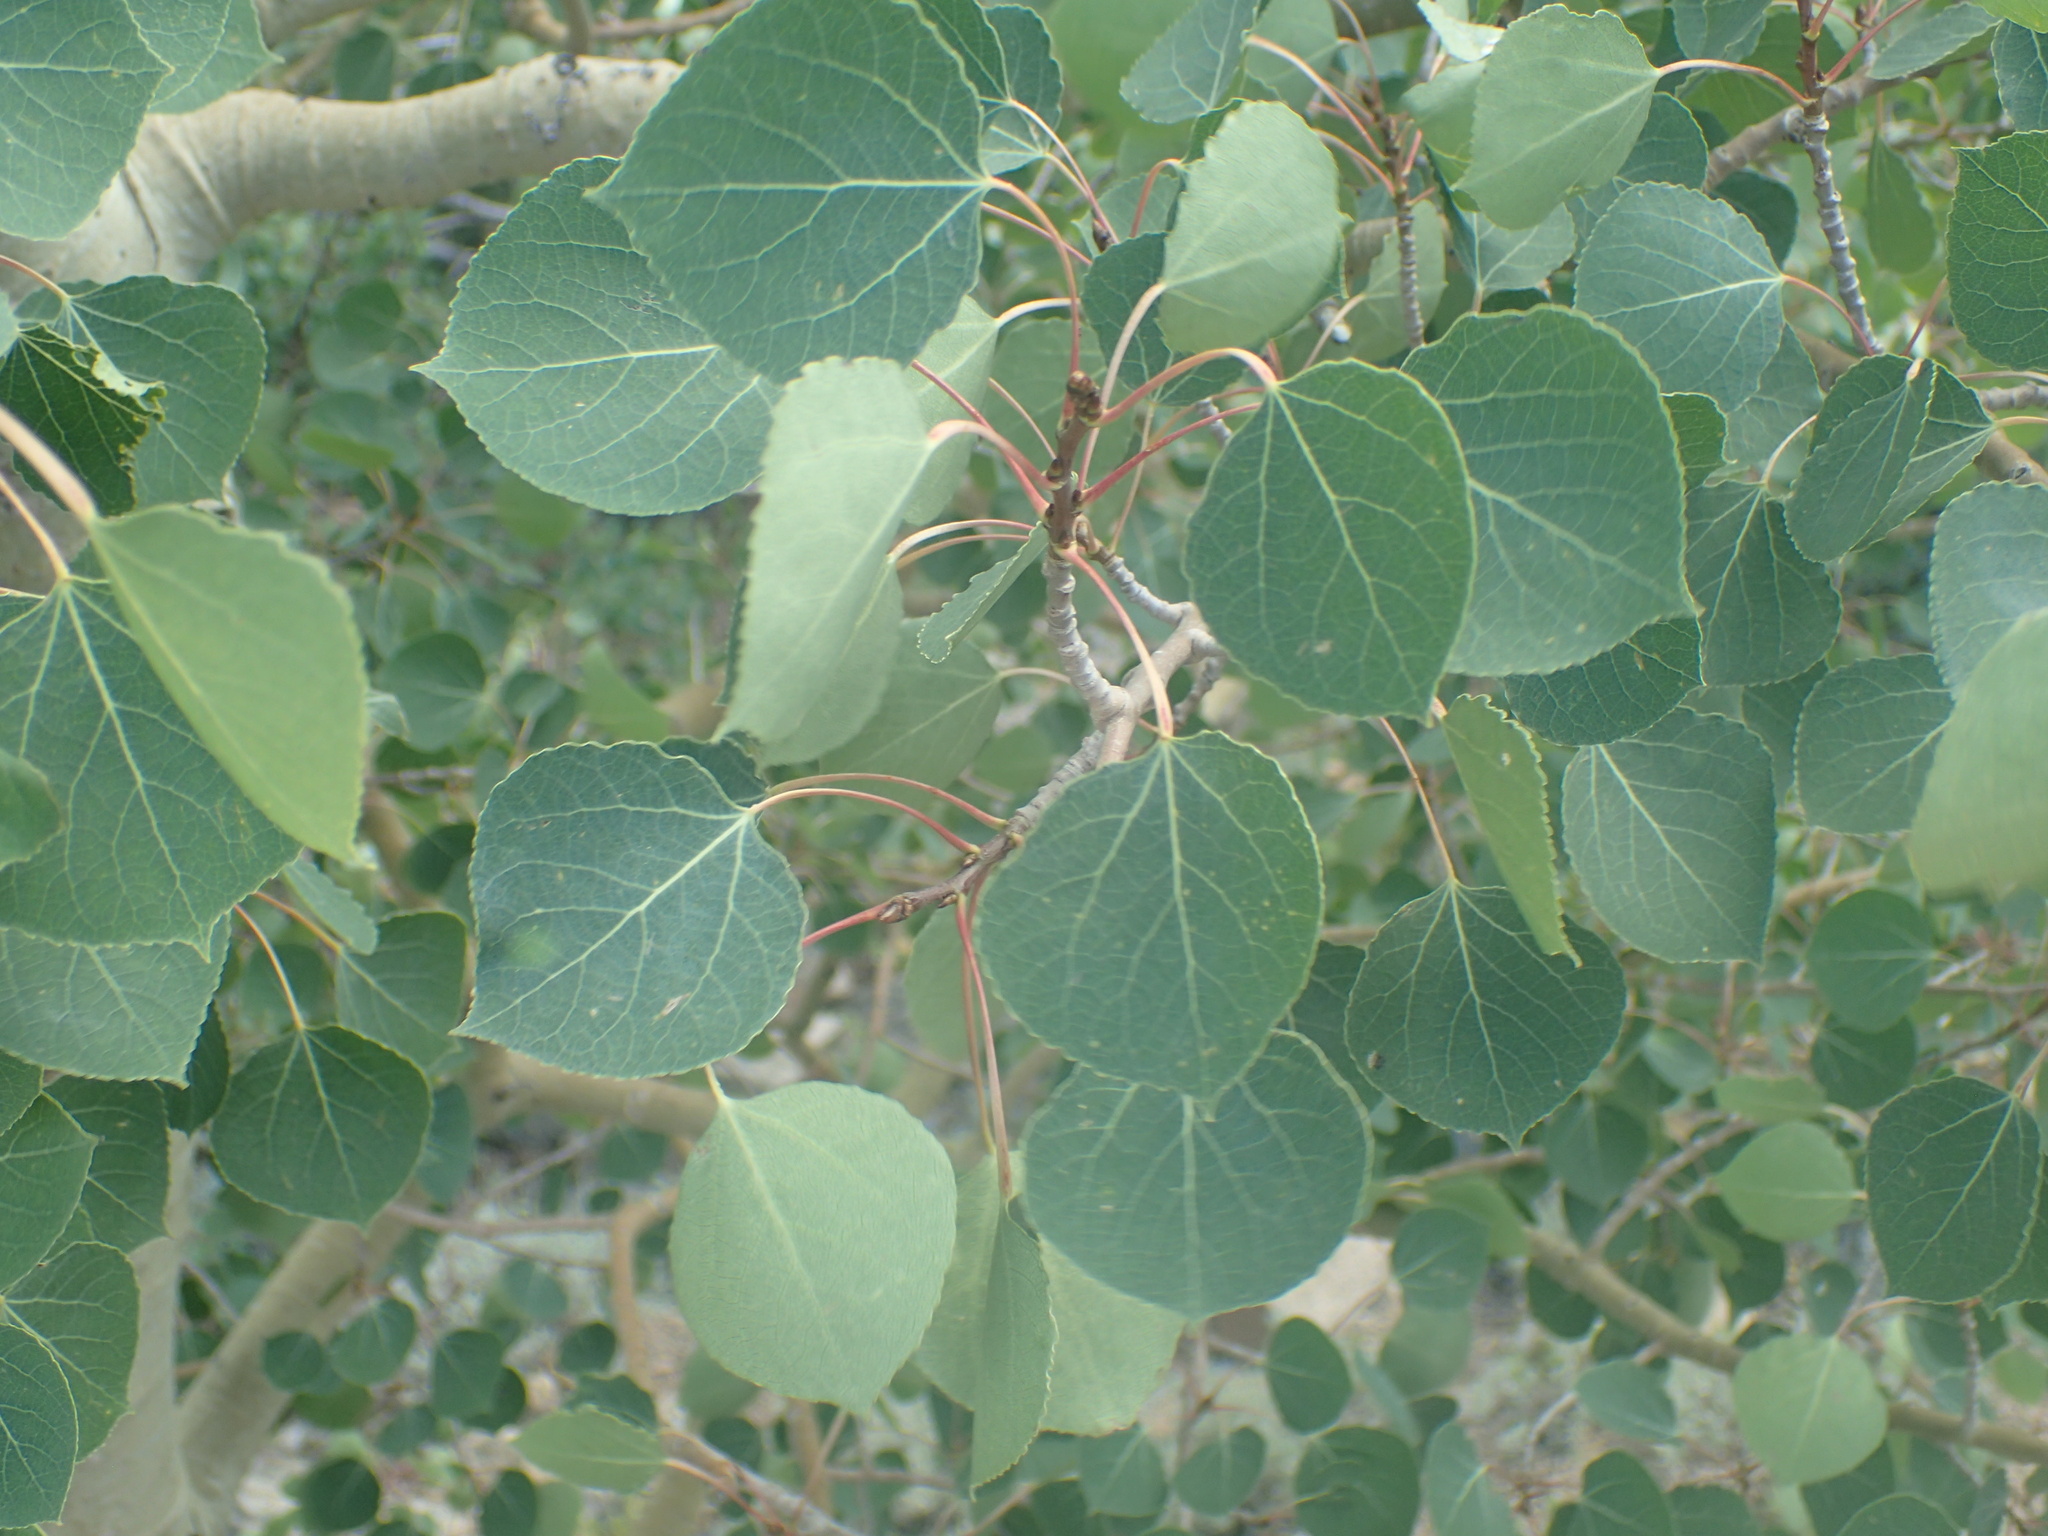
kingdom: Plantae
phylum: Tracheophyta
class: Magnoliopsida
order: Malpighiales
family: Salicaceae
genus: Populus
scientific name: Populus tremuloides
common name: Quaking aspen
